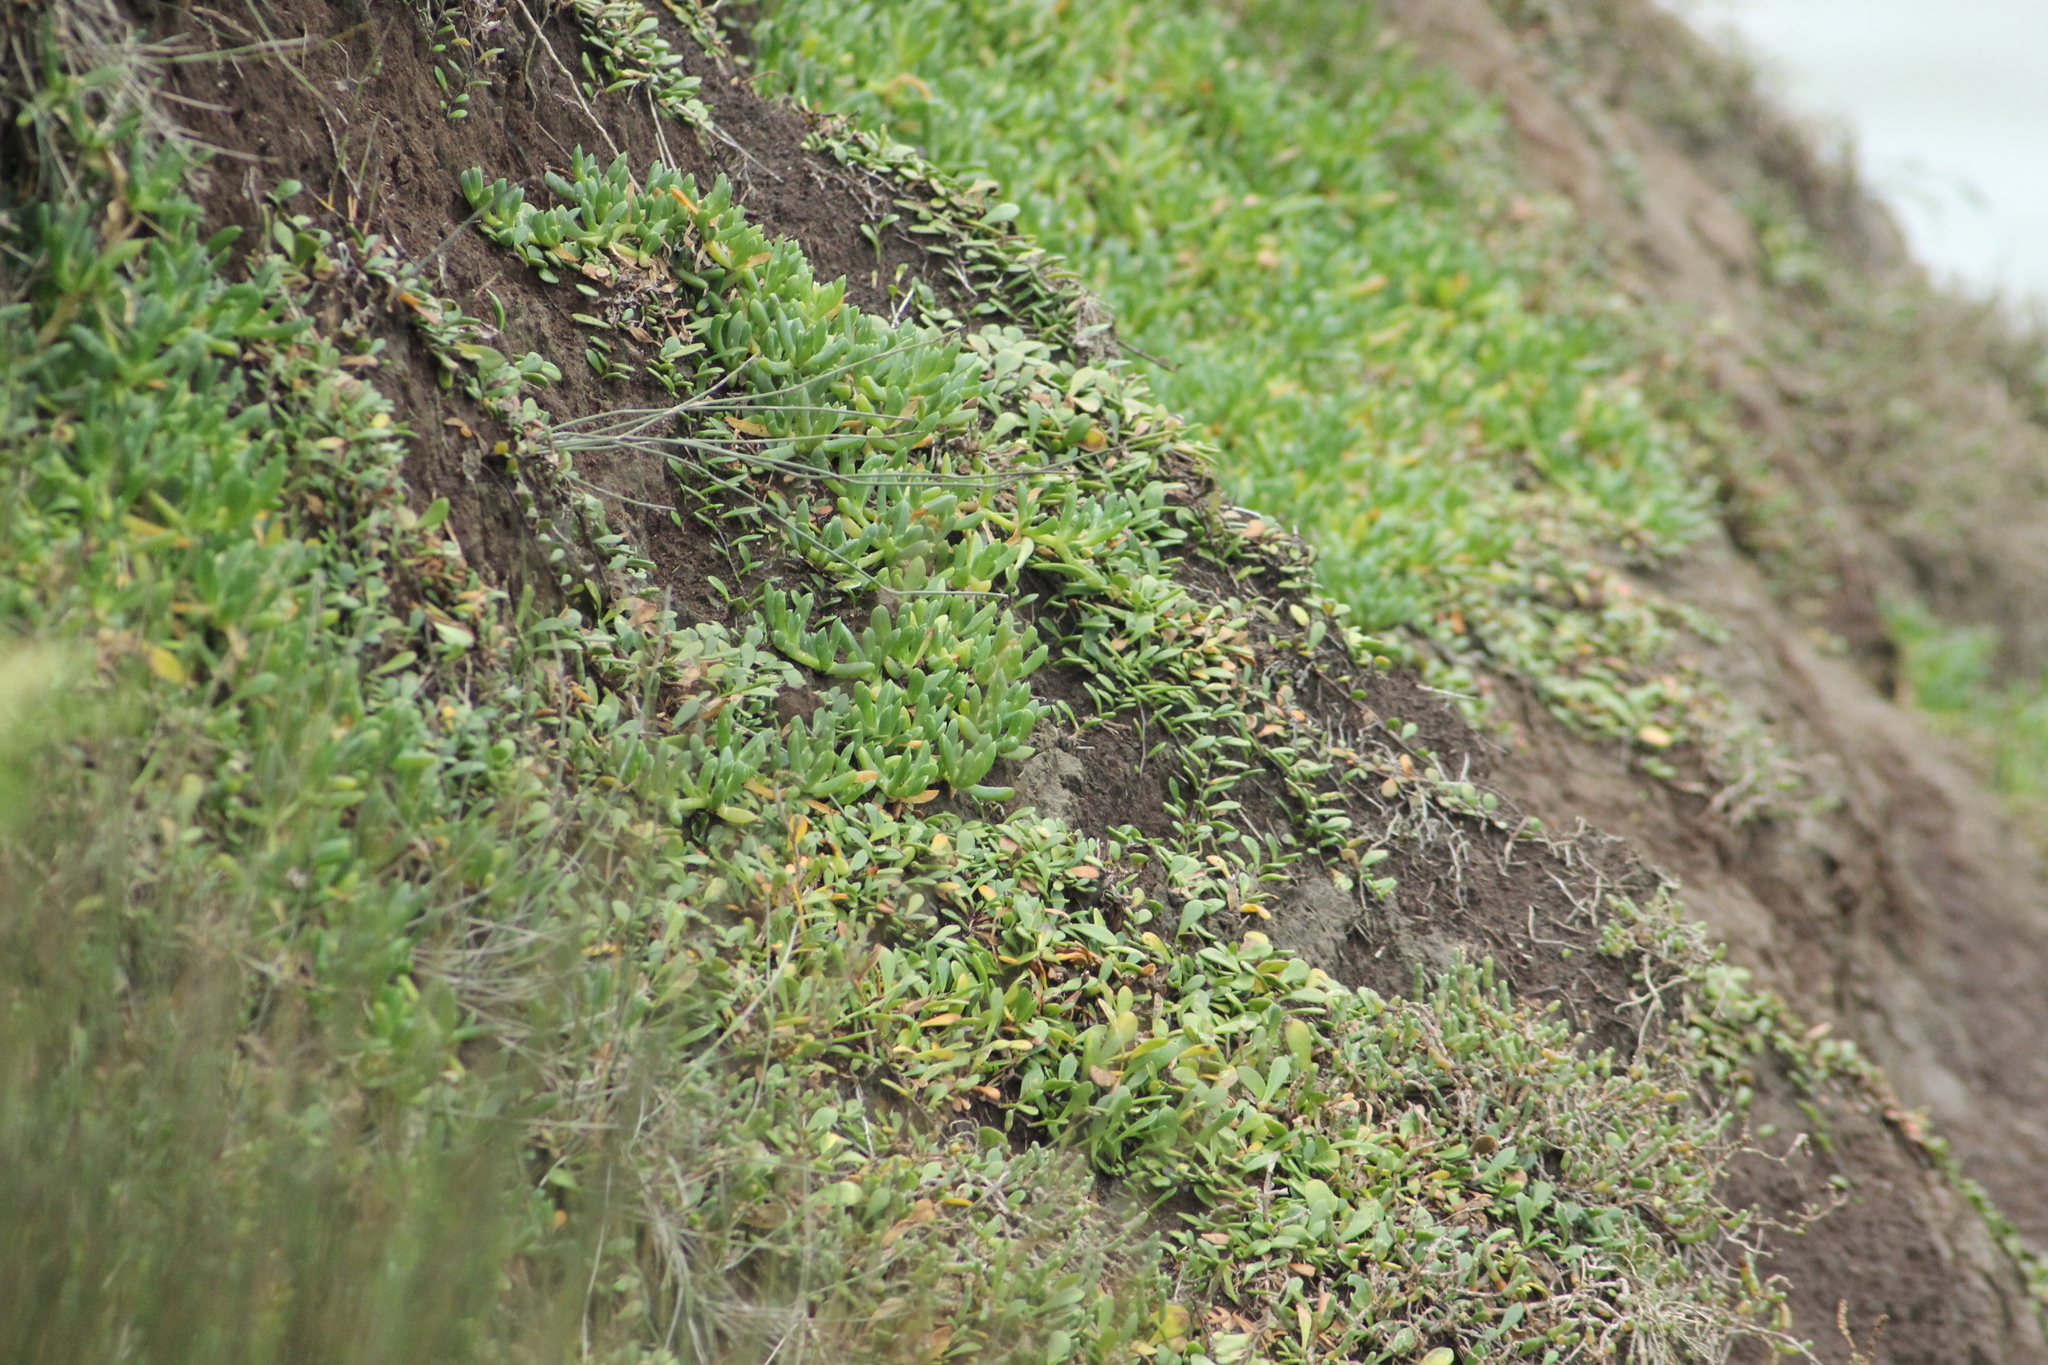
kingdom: Plantae
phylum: Tracheophyta
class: Magnoliopsida
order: Caryophyllales
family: Aizoaceae
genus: Disphyma
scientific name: Disphyma australe
